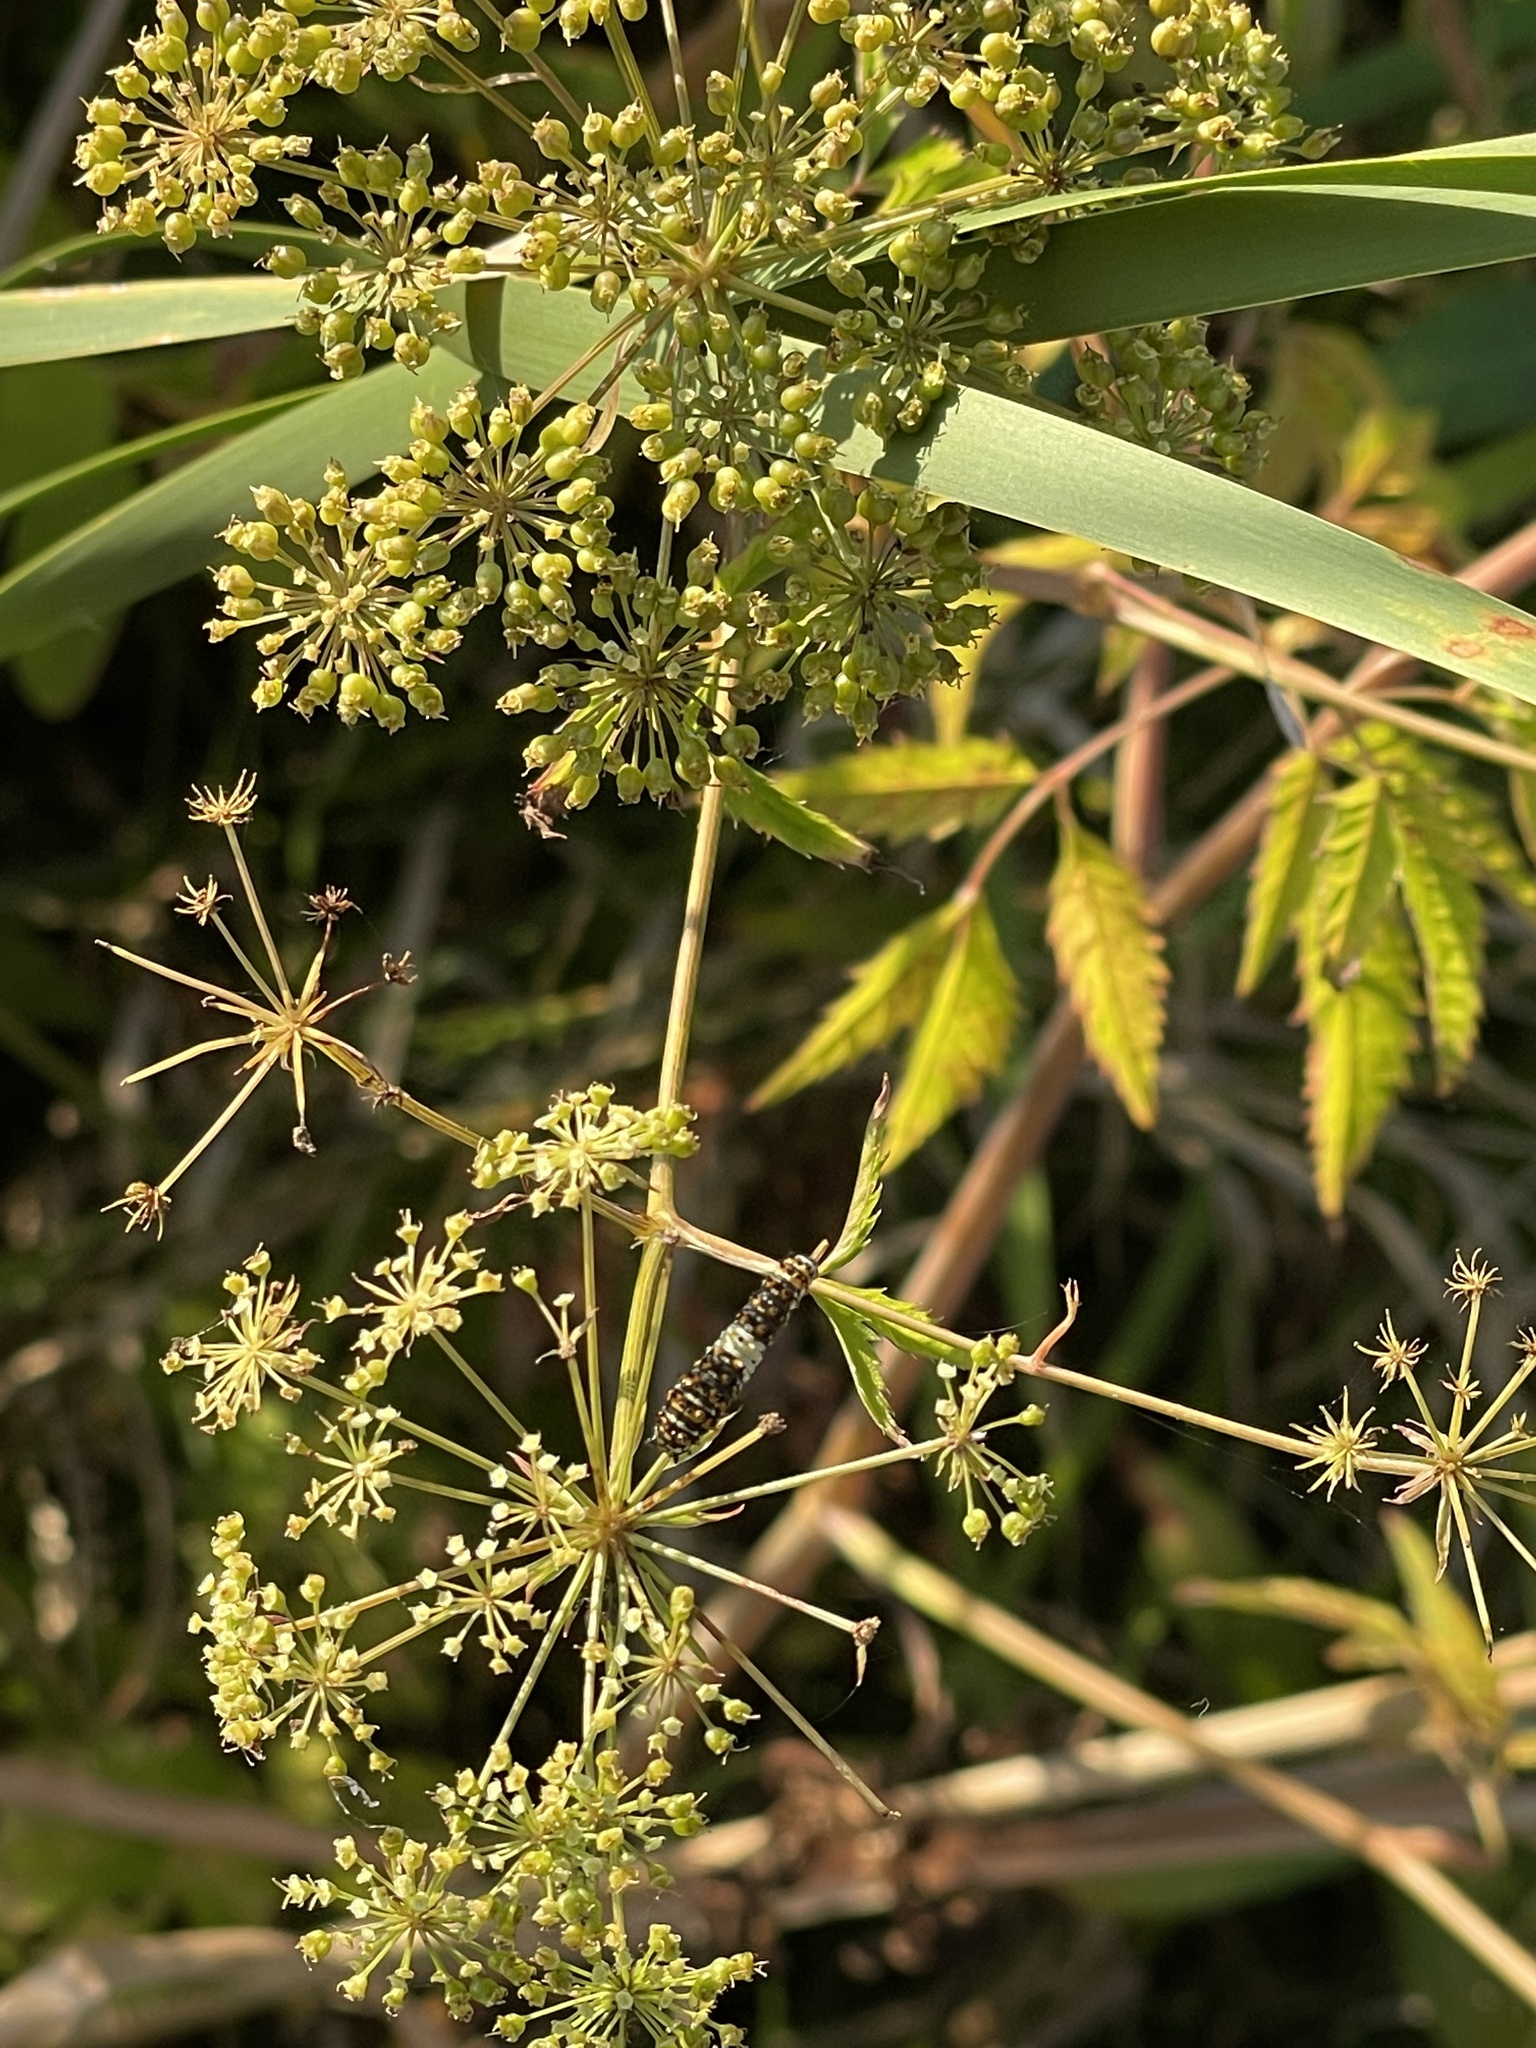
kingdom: Animalia
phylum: Arthropoda
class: Insecta
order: Lepidoptera
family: Papilionidae
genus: Papilio
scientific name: Papilio polyxenes
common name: Black swallowtail
